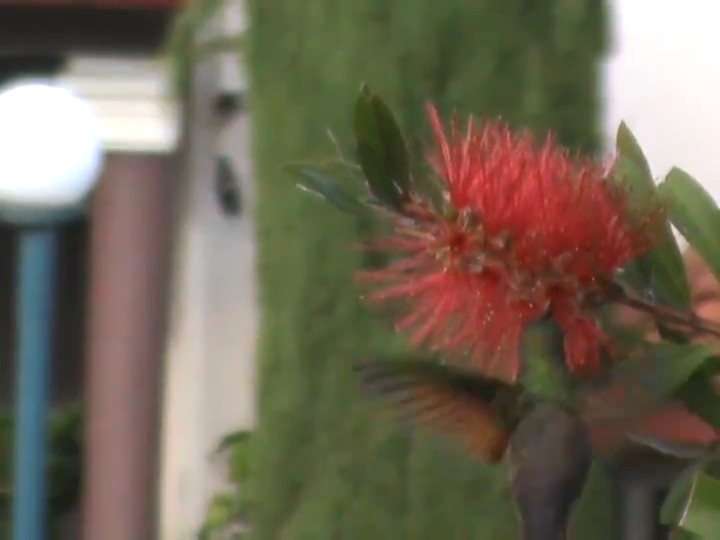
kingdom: Animalia
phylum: Chordata
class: Aves
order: Apodiformes
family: Trochilidae
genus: Saucerottia
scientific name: Saucerottia beryllina
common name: Berylline hummingbird
